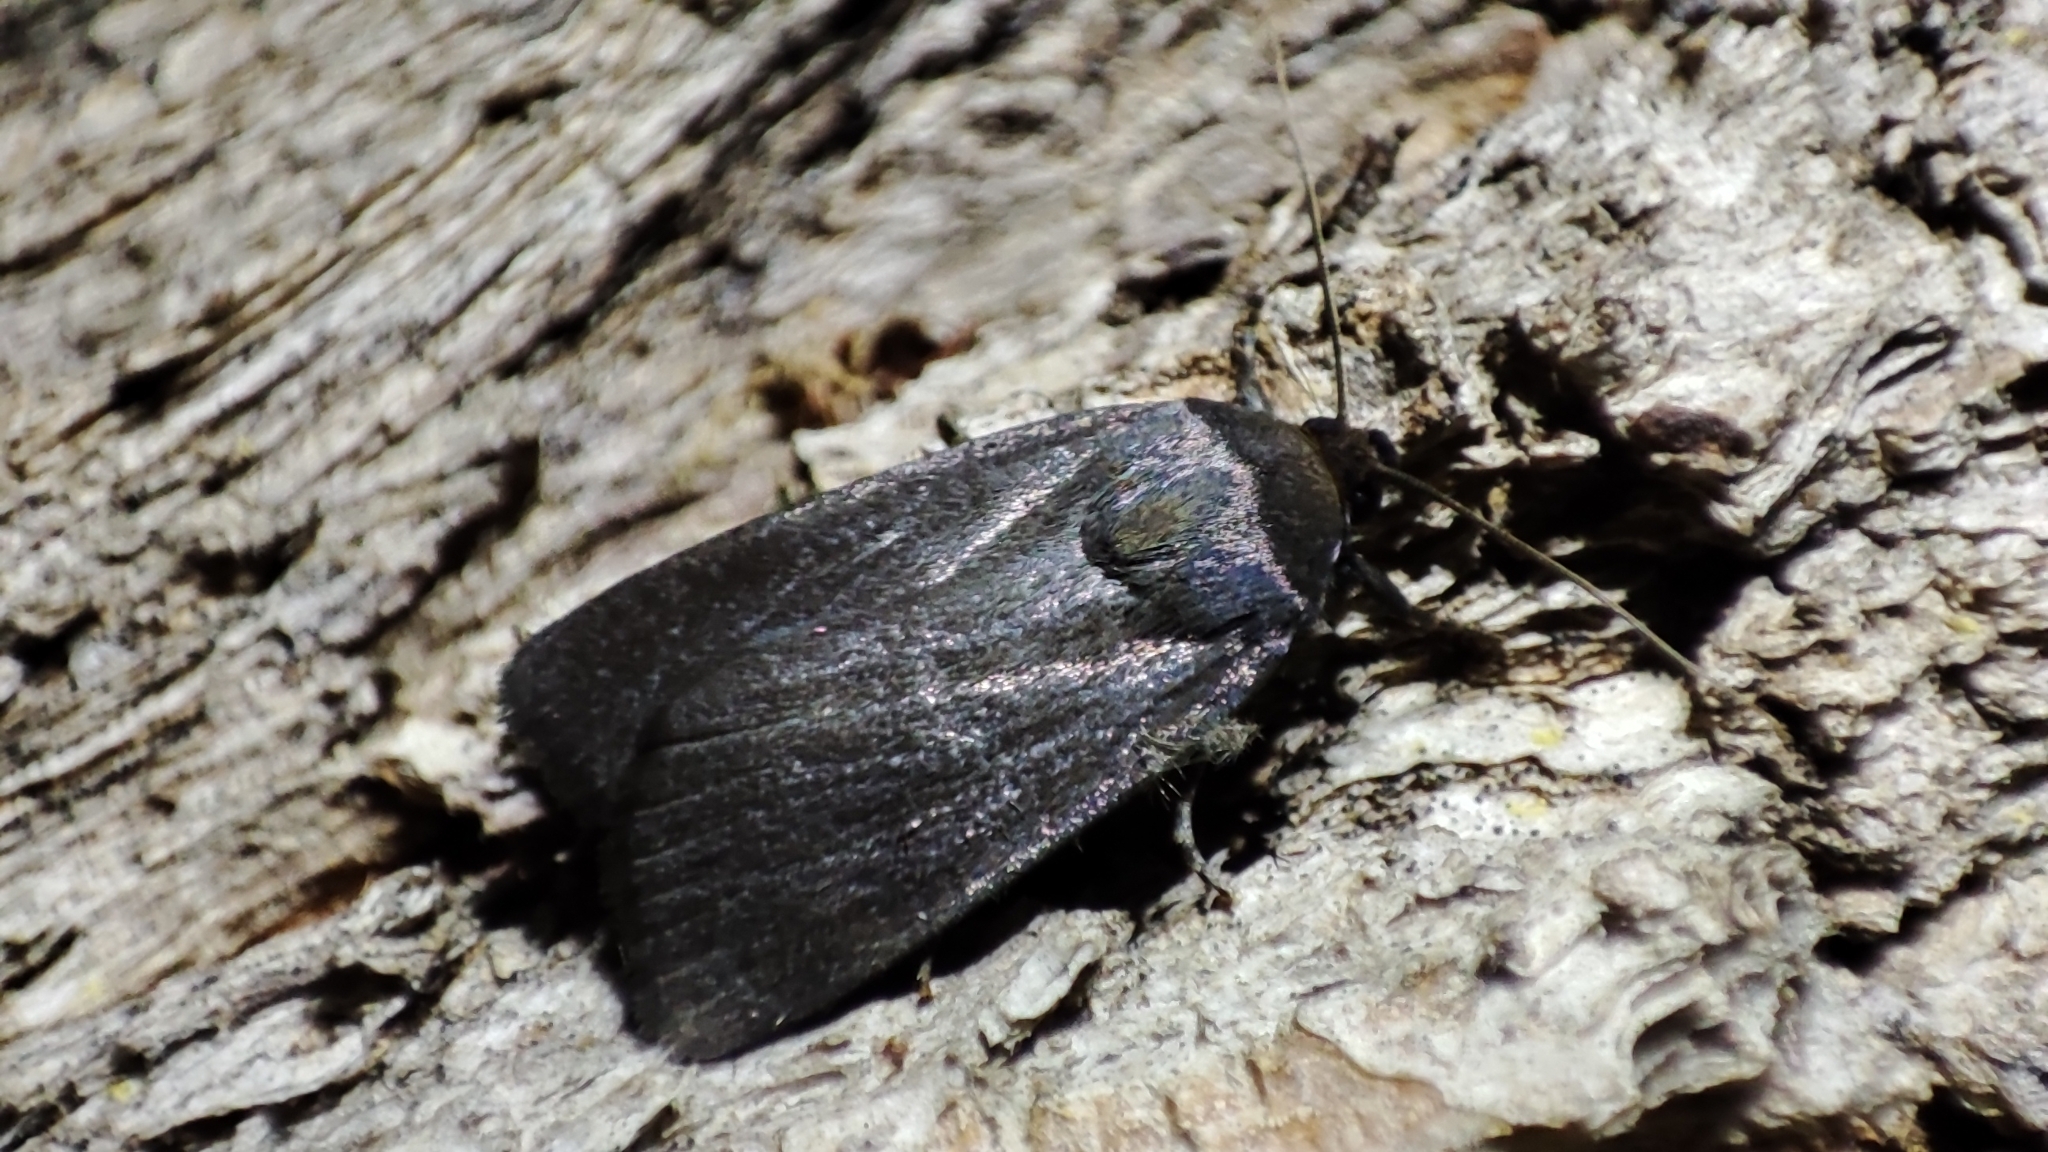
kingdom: Animalia
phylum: Arthropoda
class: Insecta
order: Lepidoptera
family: Noctuidae
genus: Amphipyra
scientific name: Amphipyra livida
